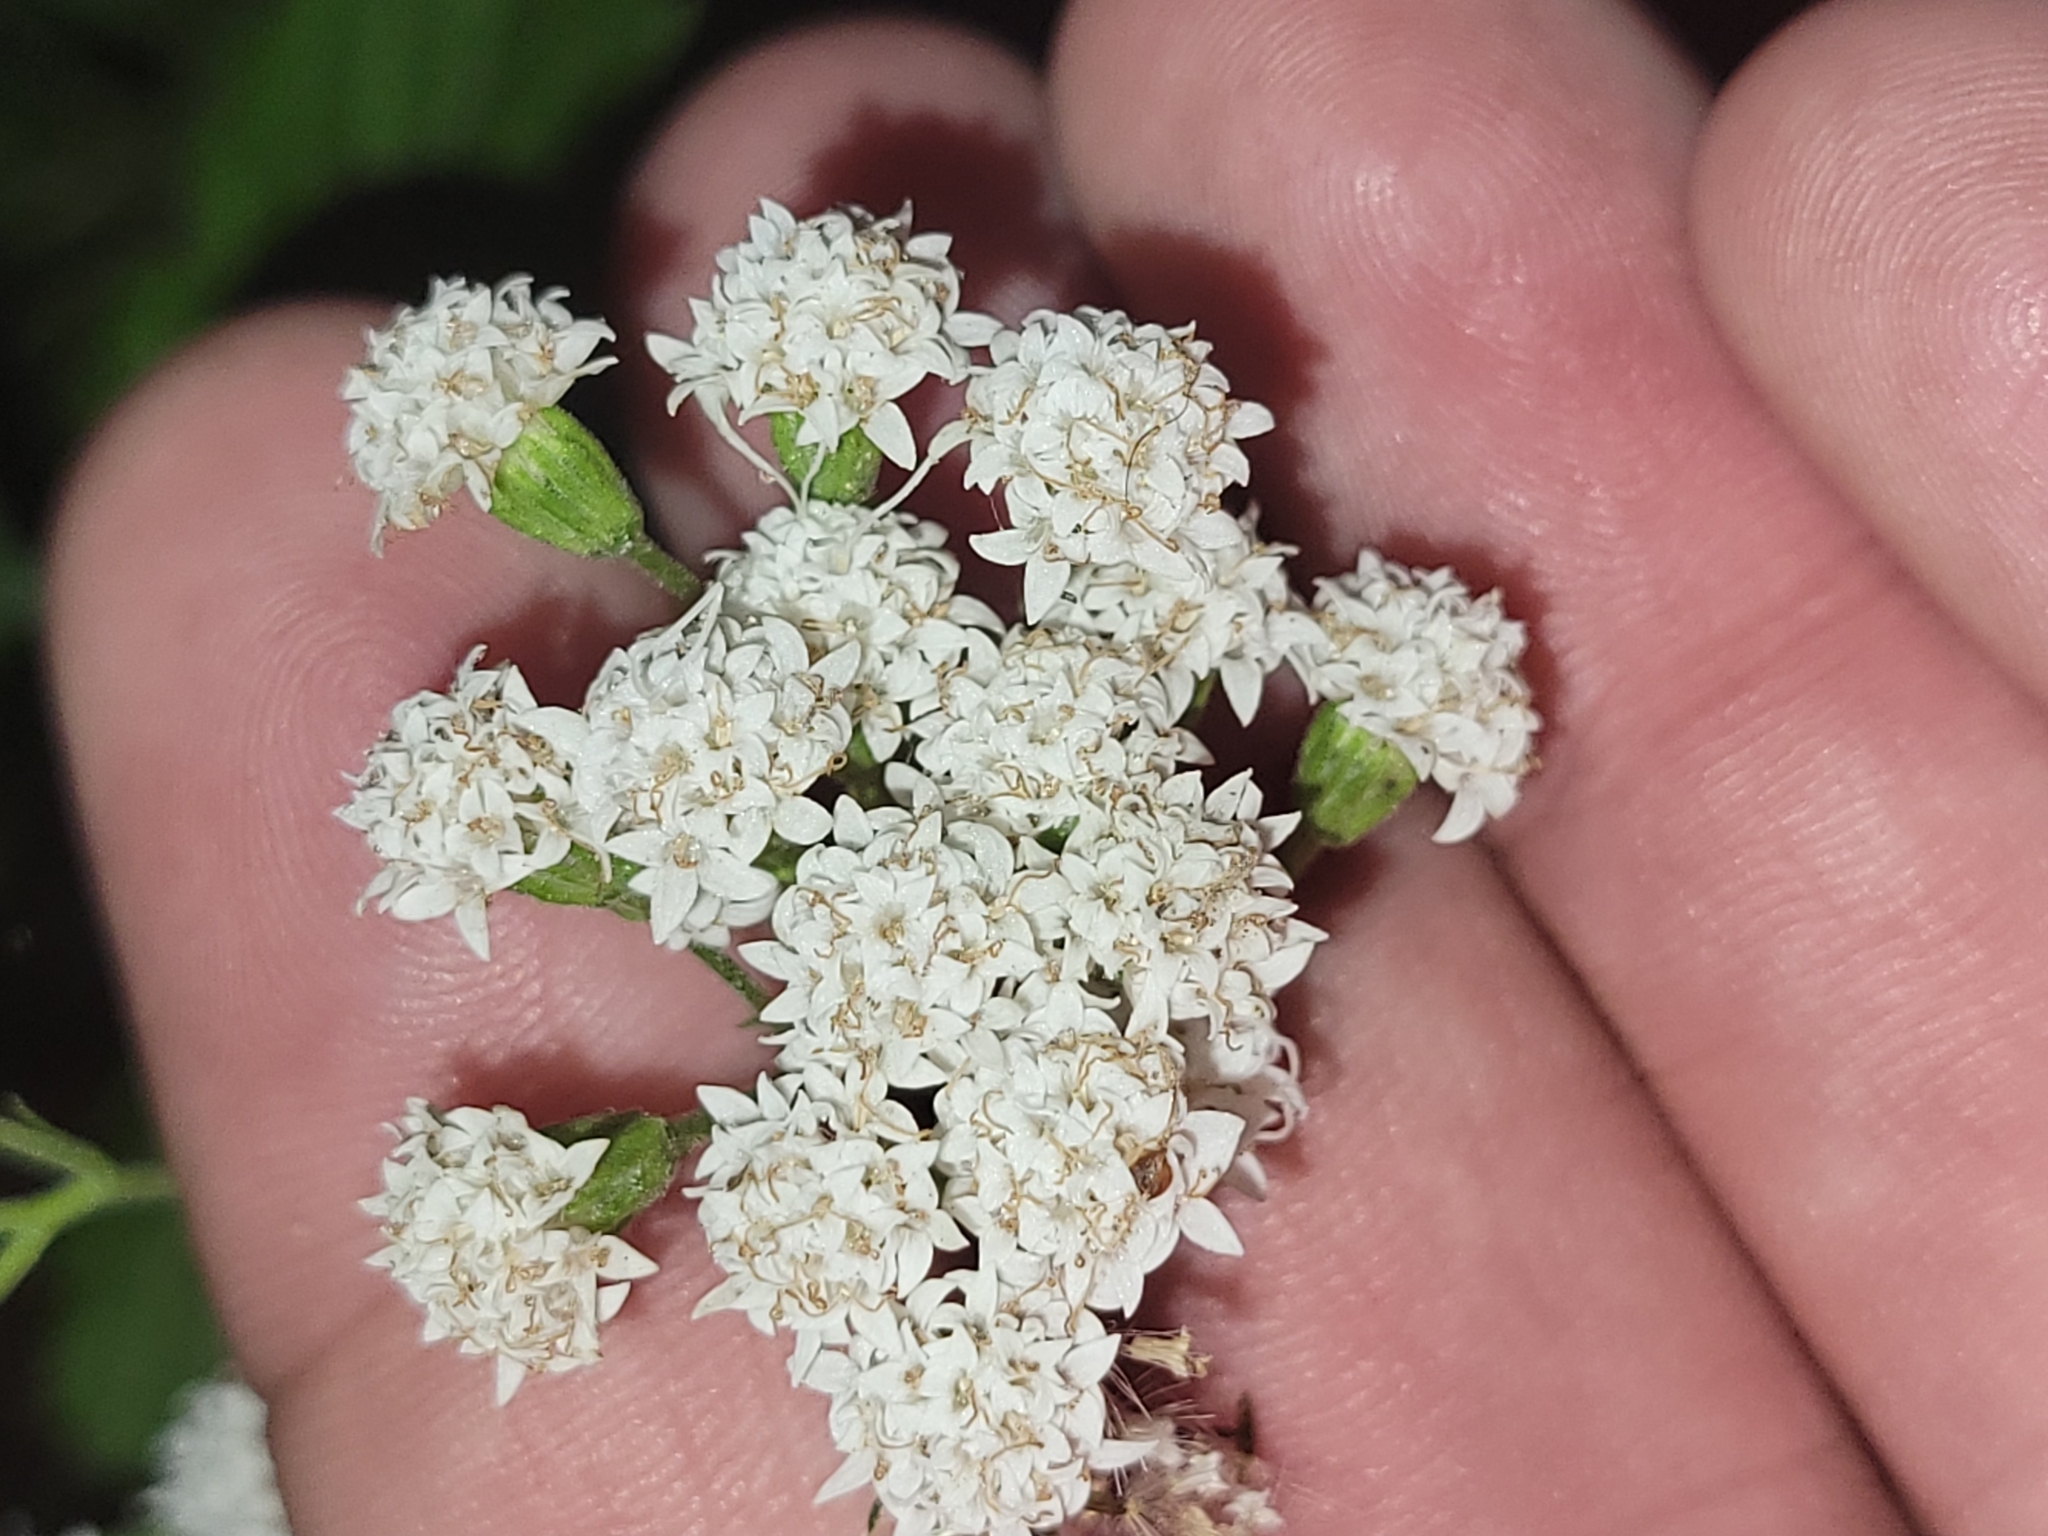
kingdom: Plantae
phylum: Tracheophyta
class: Magnoliopsida
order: Asterales
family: Asteraceae
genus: Ageratina
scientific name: Ageratina altissima
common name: White snakeroot
